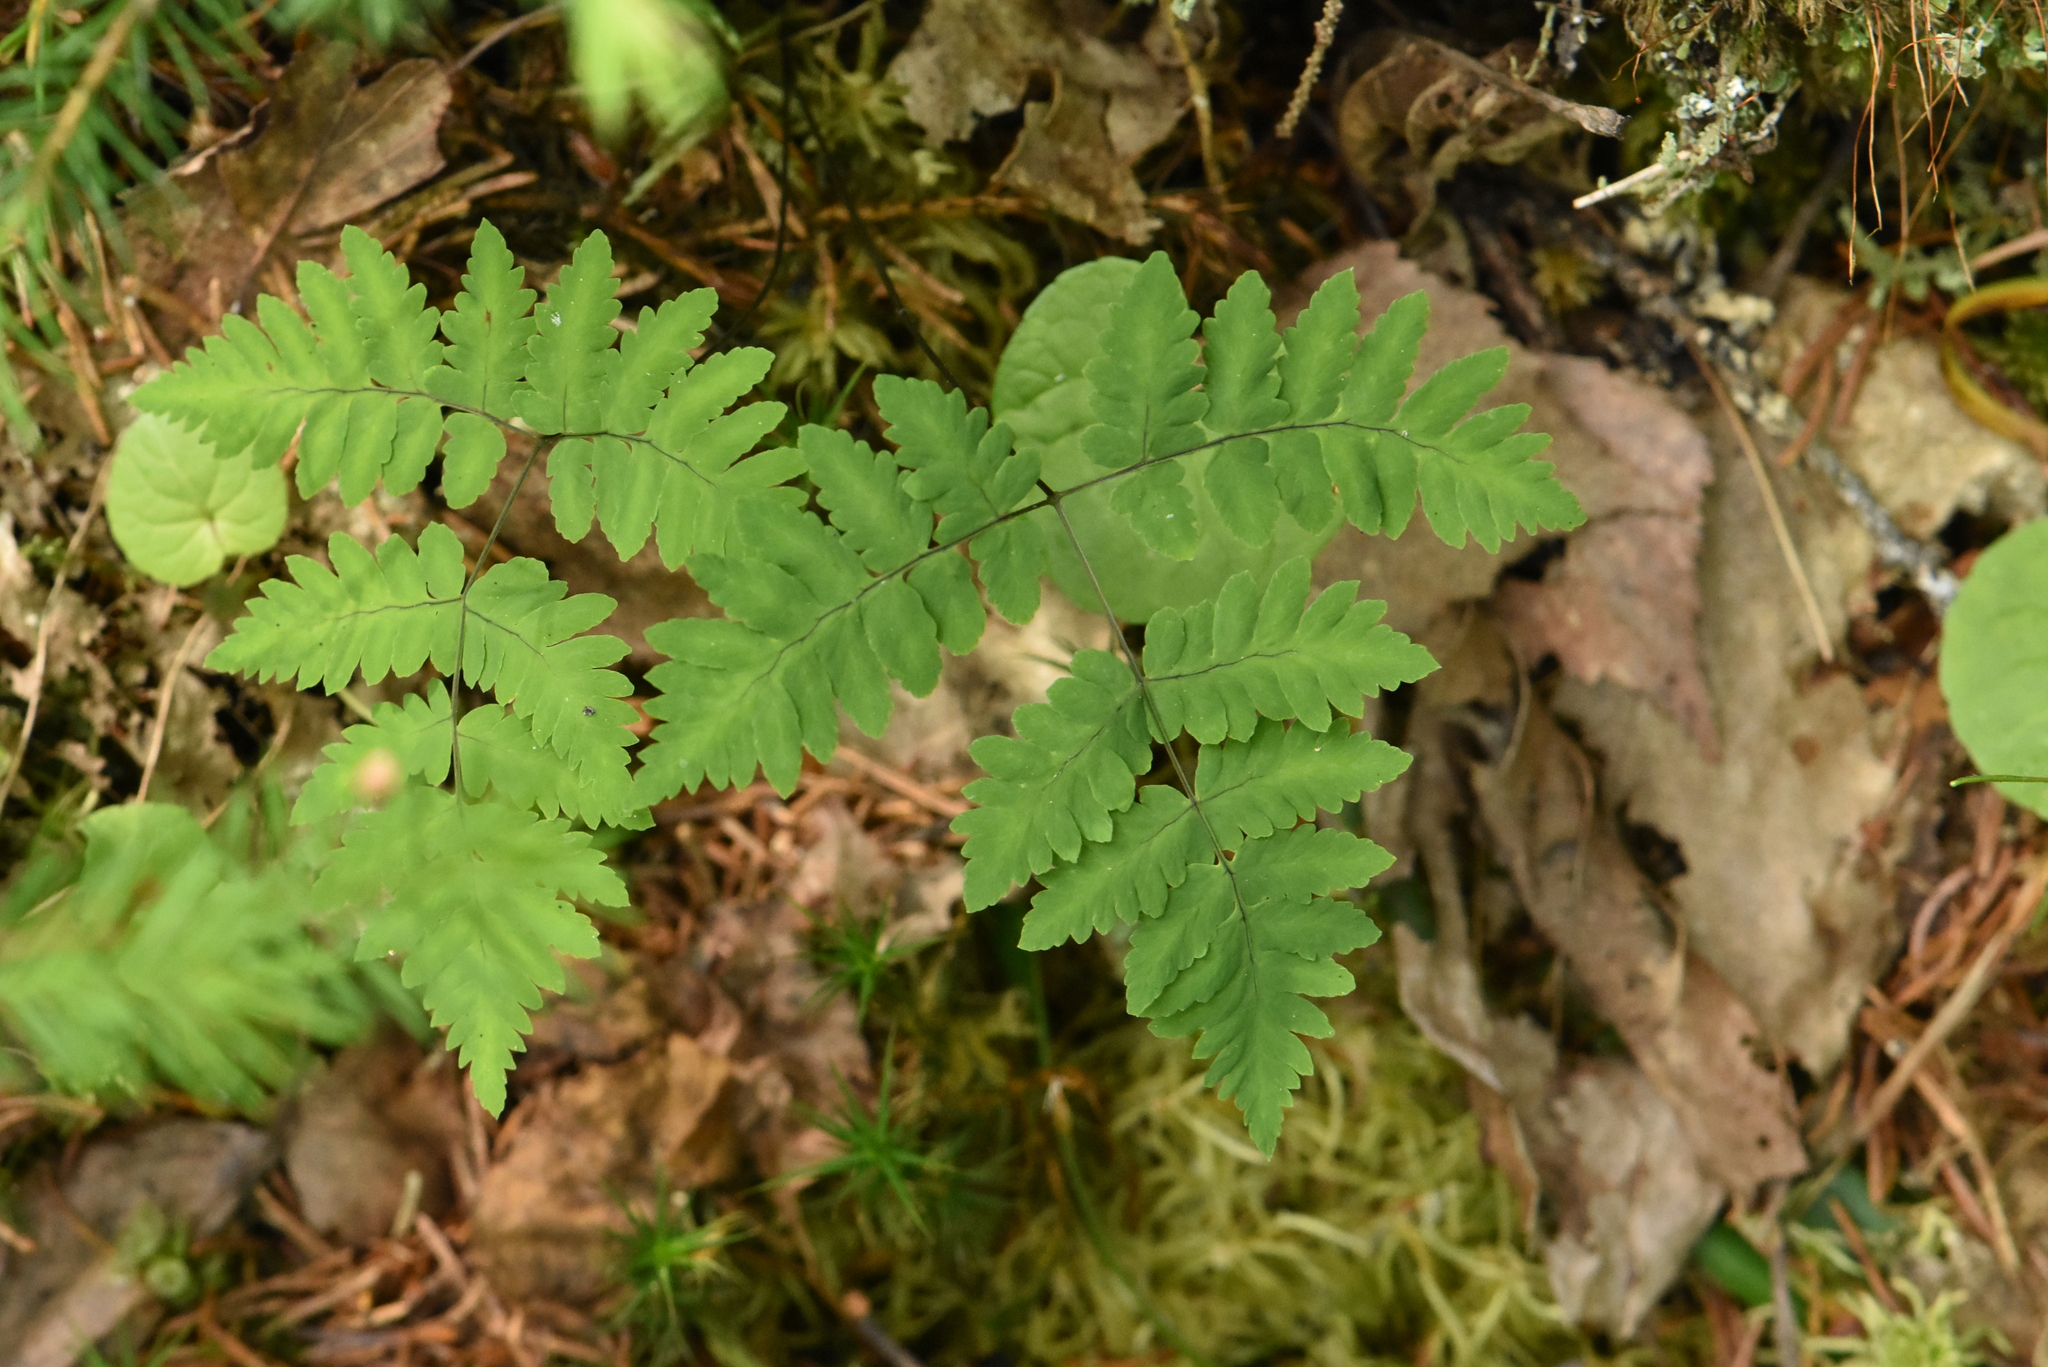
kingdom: Plantae
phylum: Tracheophyta
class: Polypodiopsida
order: Polypodiales
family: Cystopteridaceae
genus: Gymnocarpium
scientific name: Gymnocarpium dryopteris
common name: Oak fern
